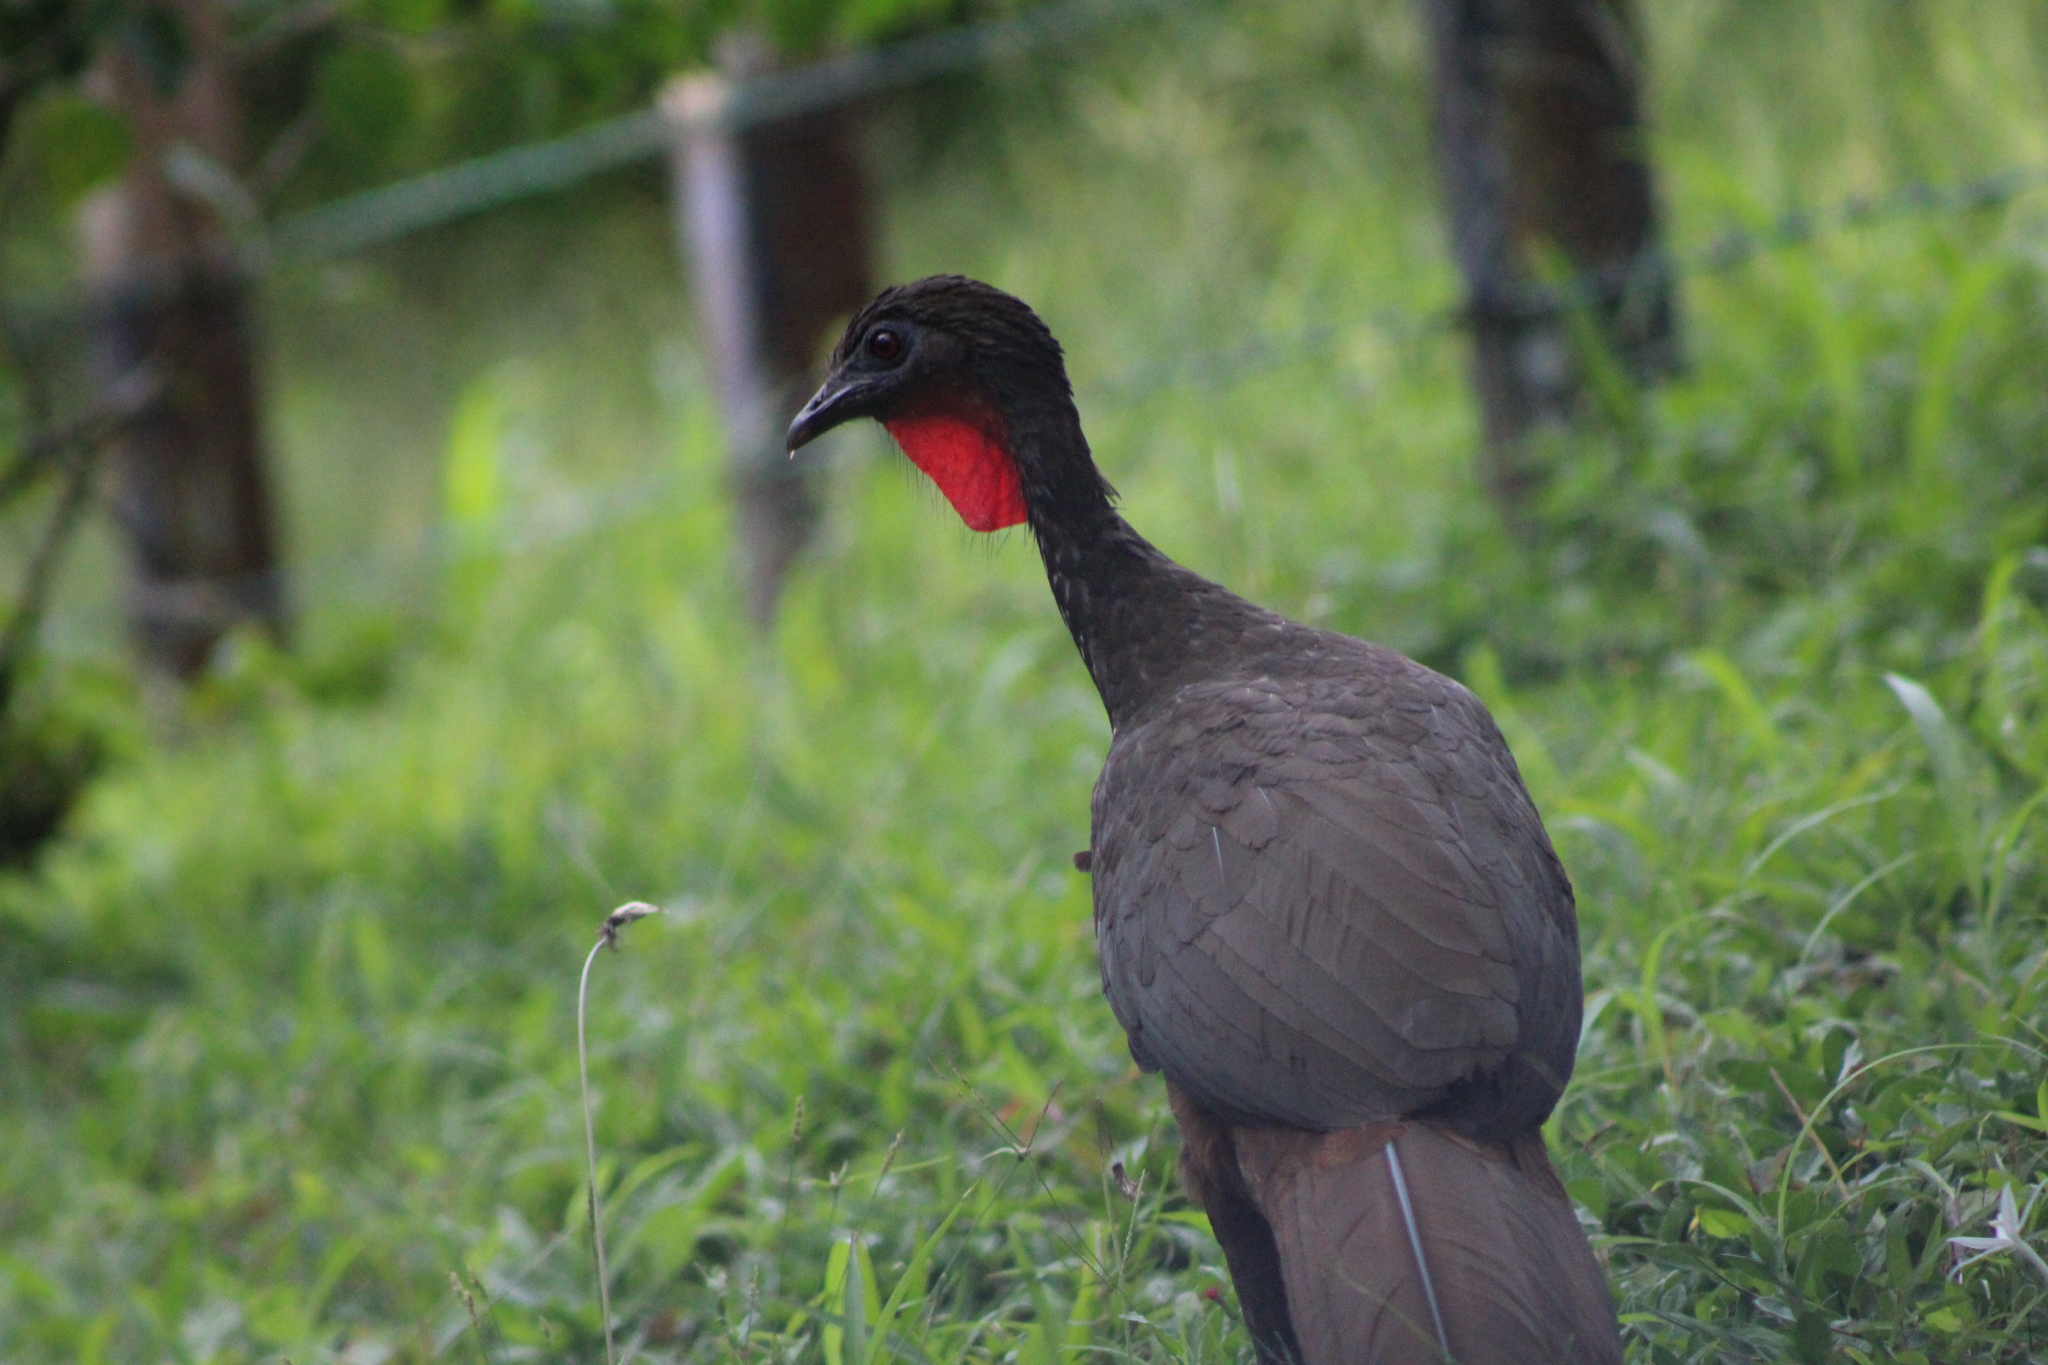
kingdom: Animalia
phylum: Chordata
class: Aves
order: Galliformes
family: Cracidae
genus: Penelope
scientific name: Penelope purpurascens
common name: Crested guan
